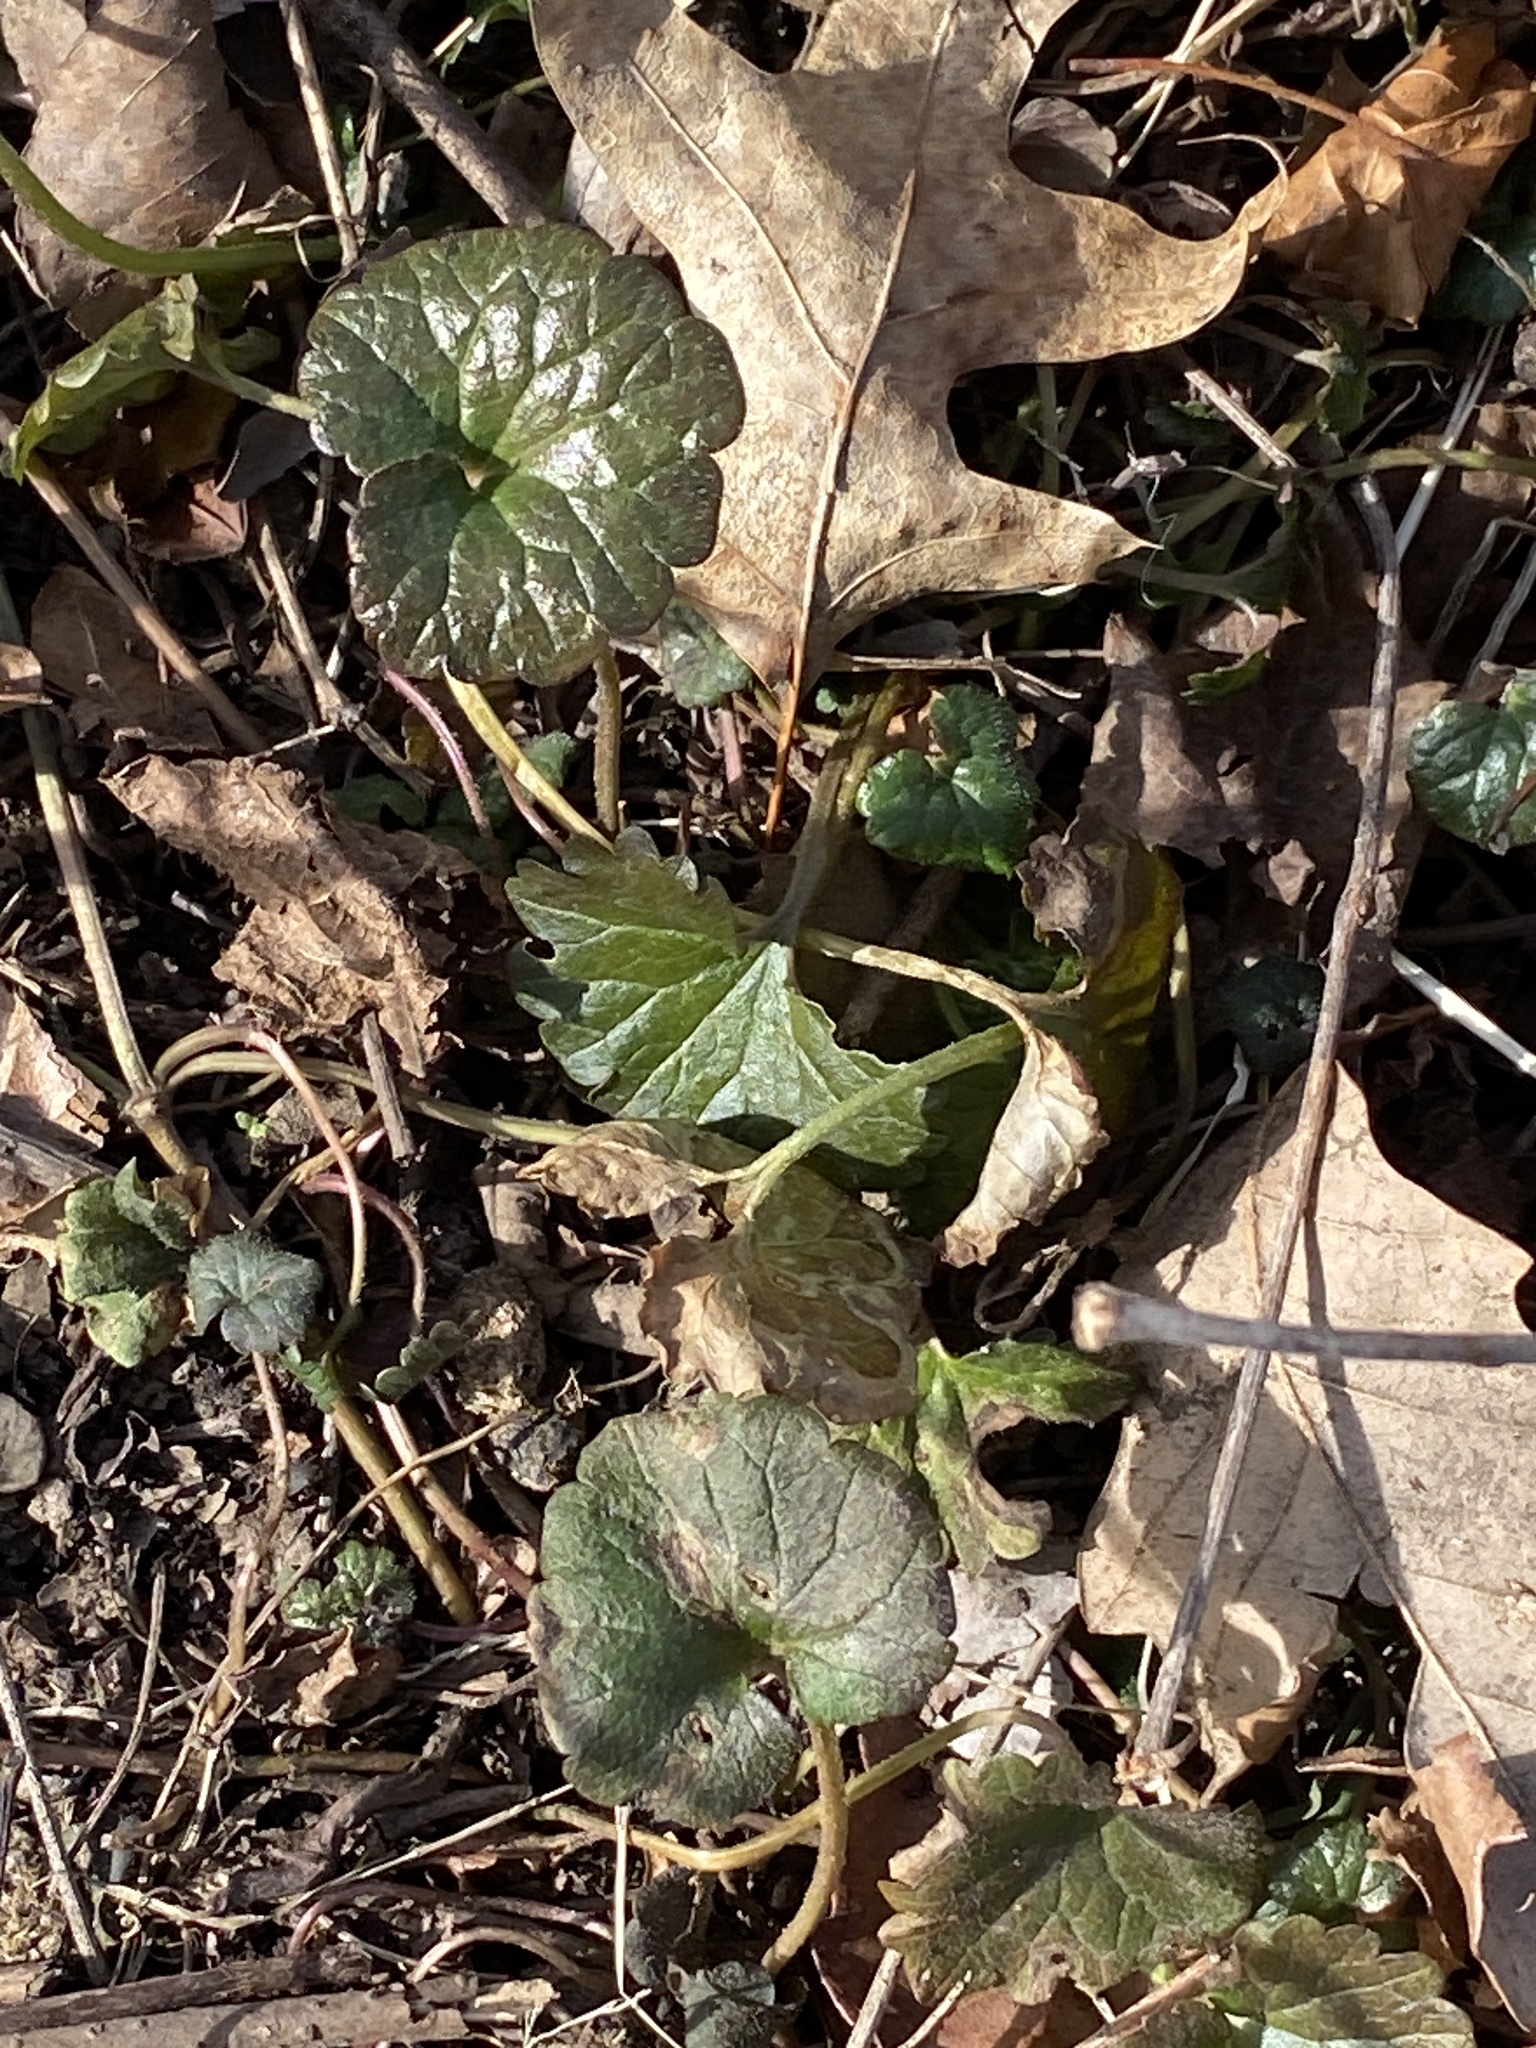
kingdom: Plantae
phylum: Tracheophyta
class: Magnoliopsida
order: Lamiales
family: Lamiaceae
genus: Glechoma
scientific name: Glechoma hederacea
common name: Ground ivy
